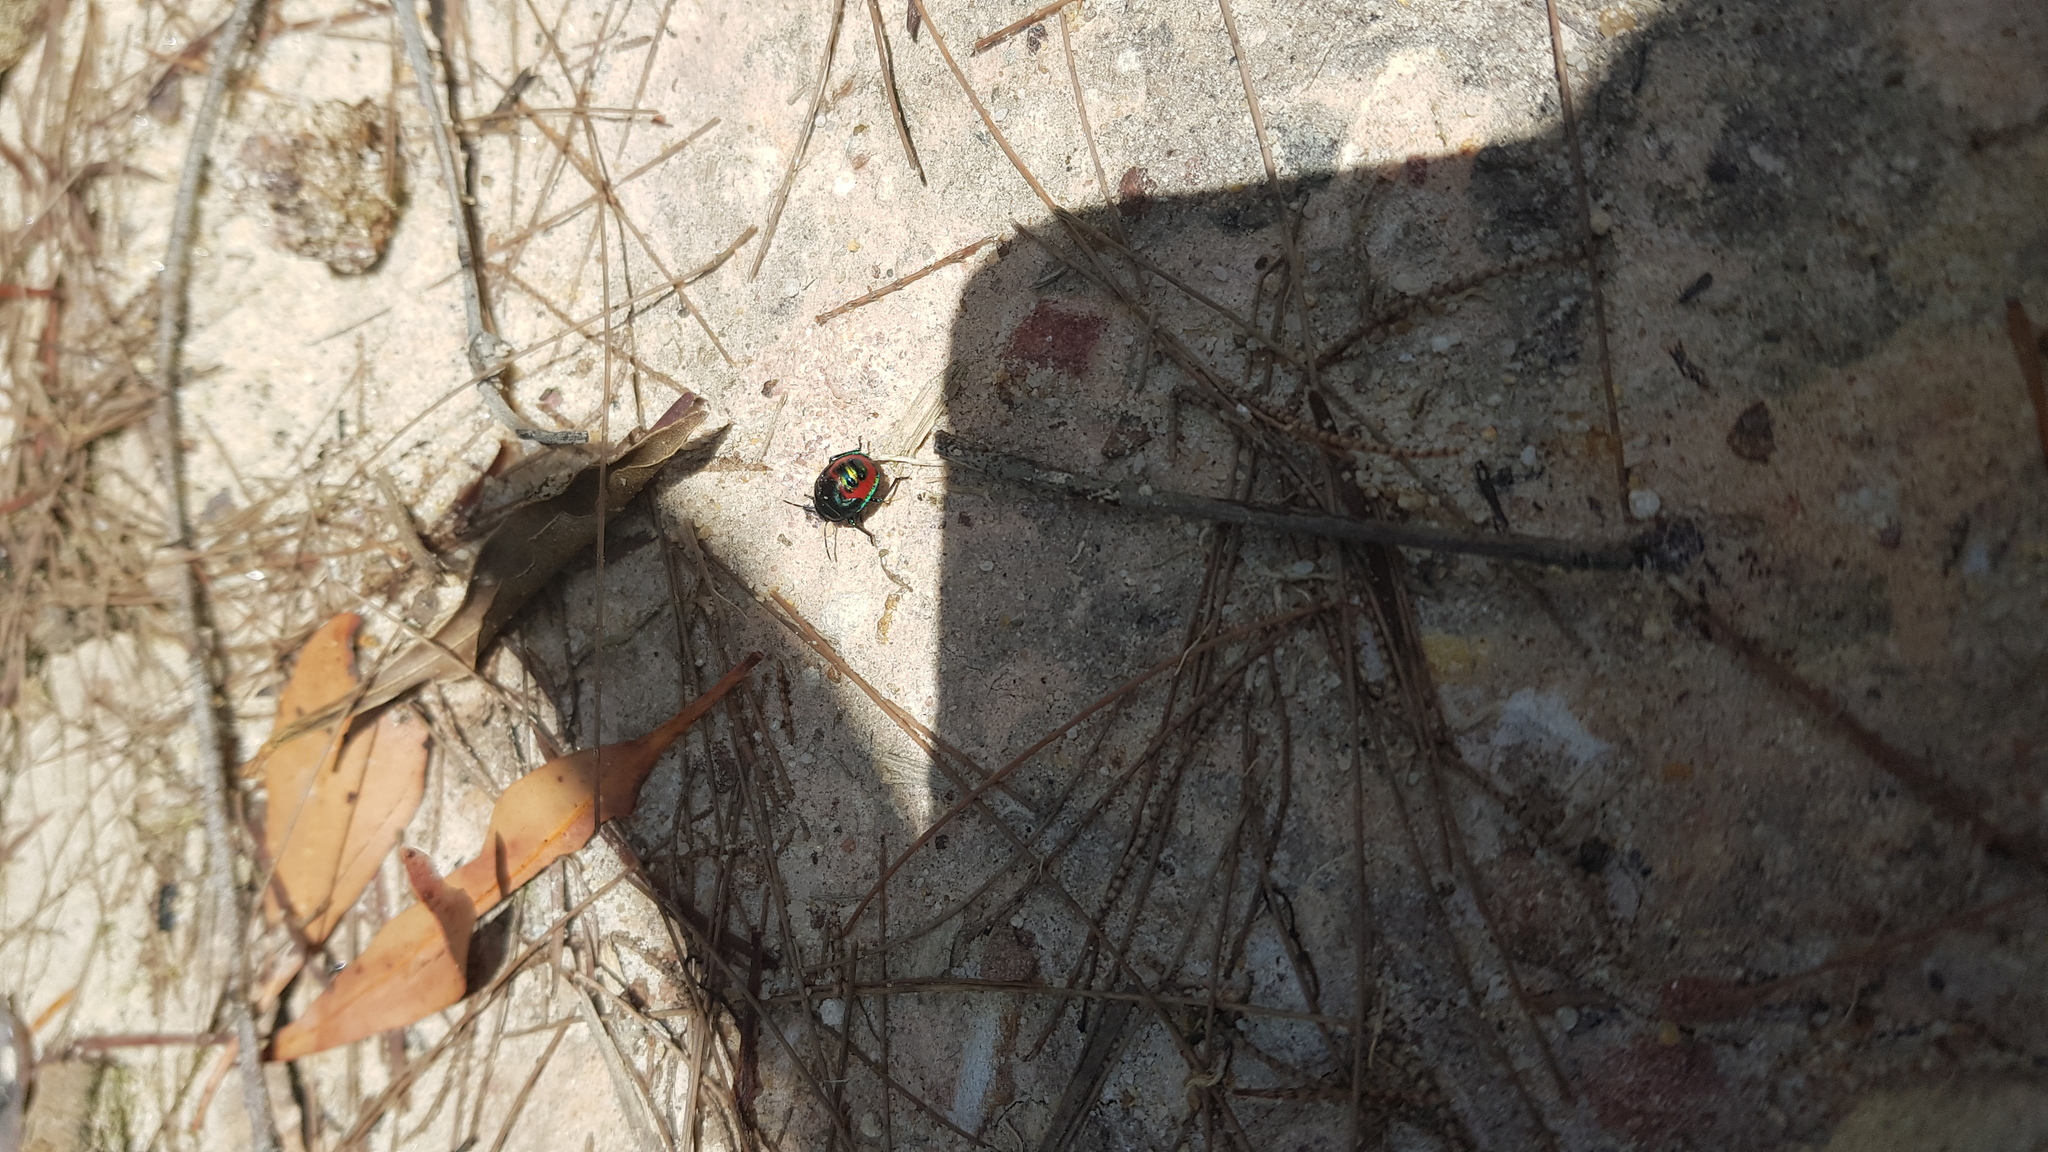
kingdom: Animalia
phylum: Arthropoda
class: Insecta
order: Hemiptera
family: Scutelleridae
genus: Choerocoris
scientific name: Choerocoris paganus
